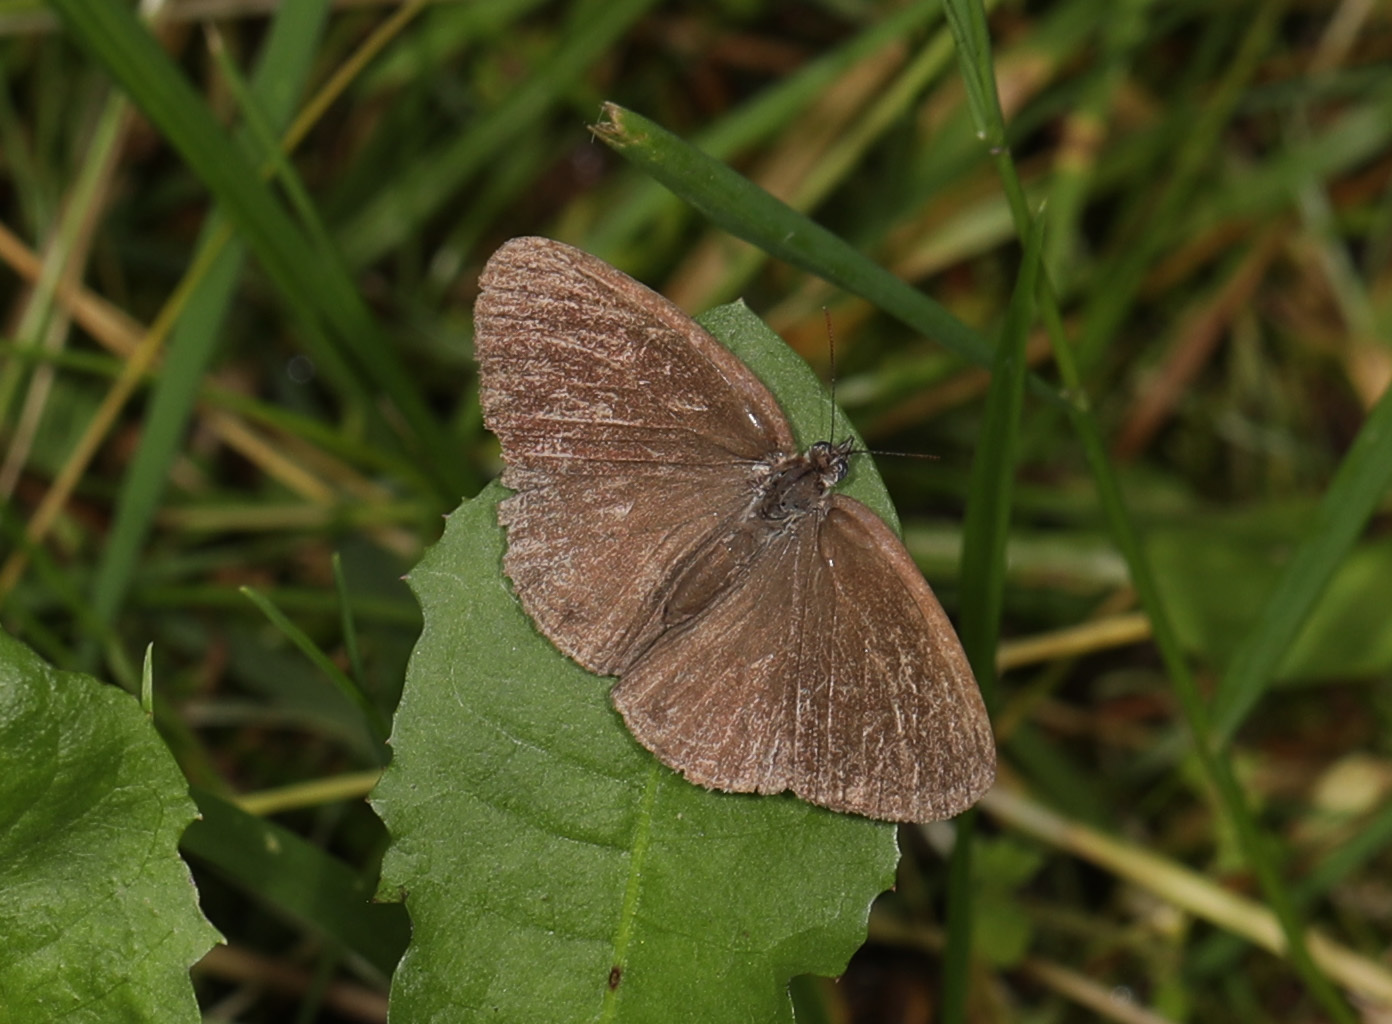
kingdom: Animalia
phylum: Arthropoda
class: Insecta
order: Lepidoptera
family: Nymphalidae
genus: Hermeuptychia
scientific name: Hermeuptychia hermes
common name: Hermes satyr
